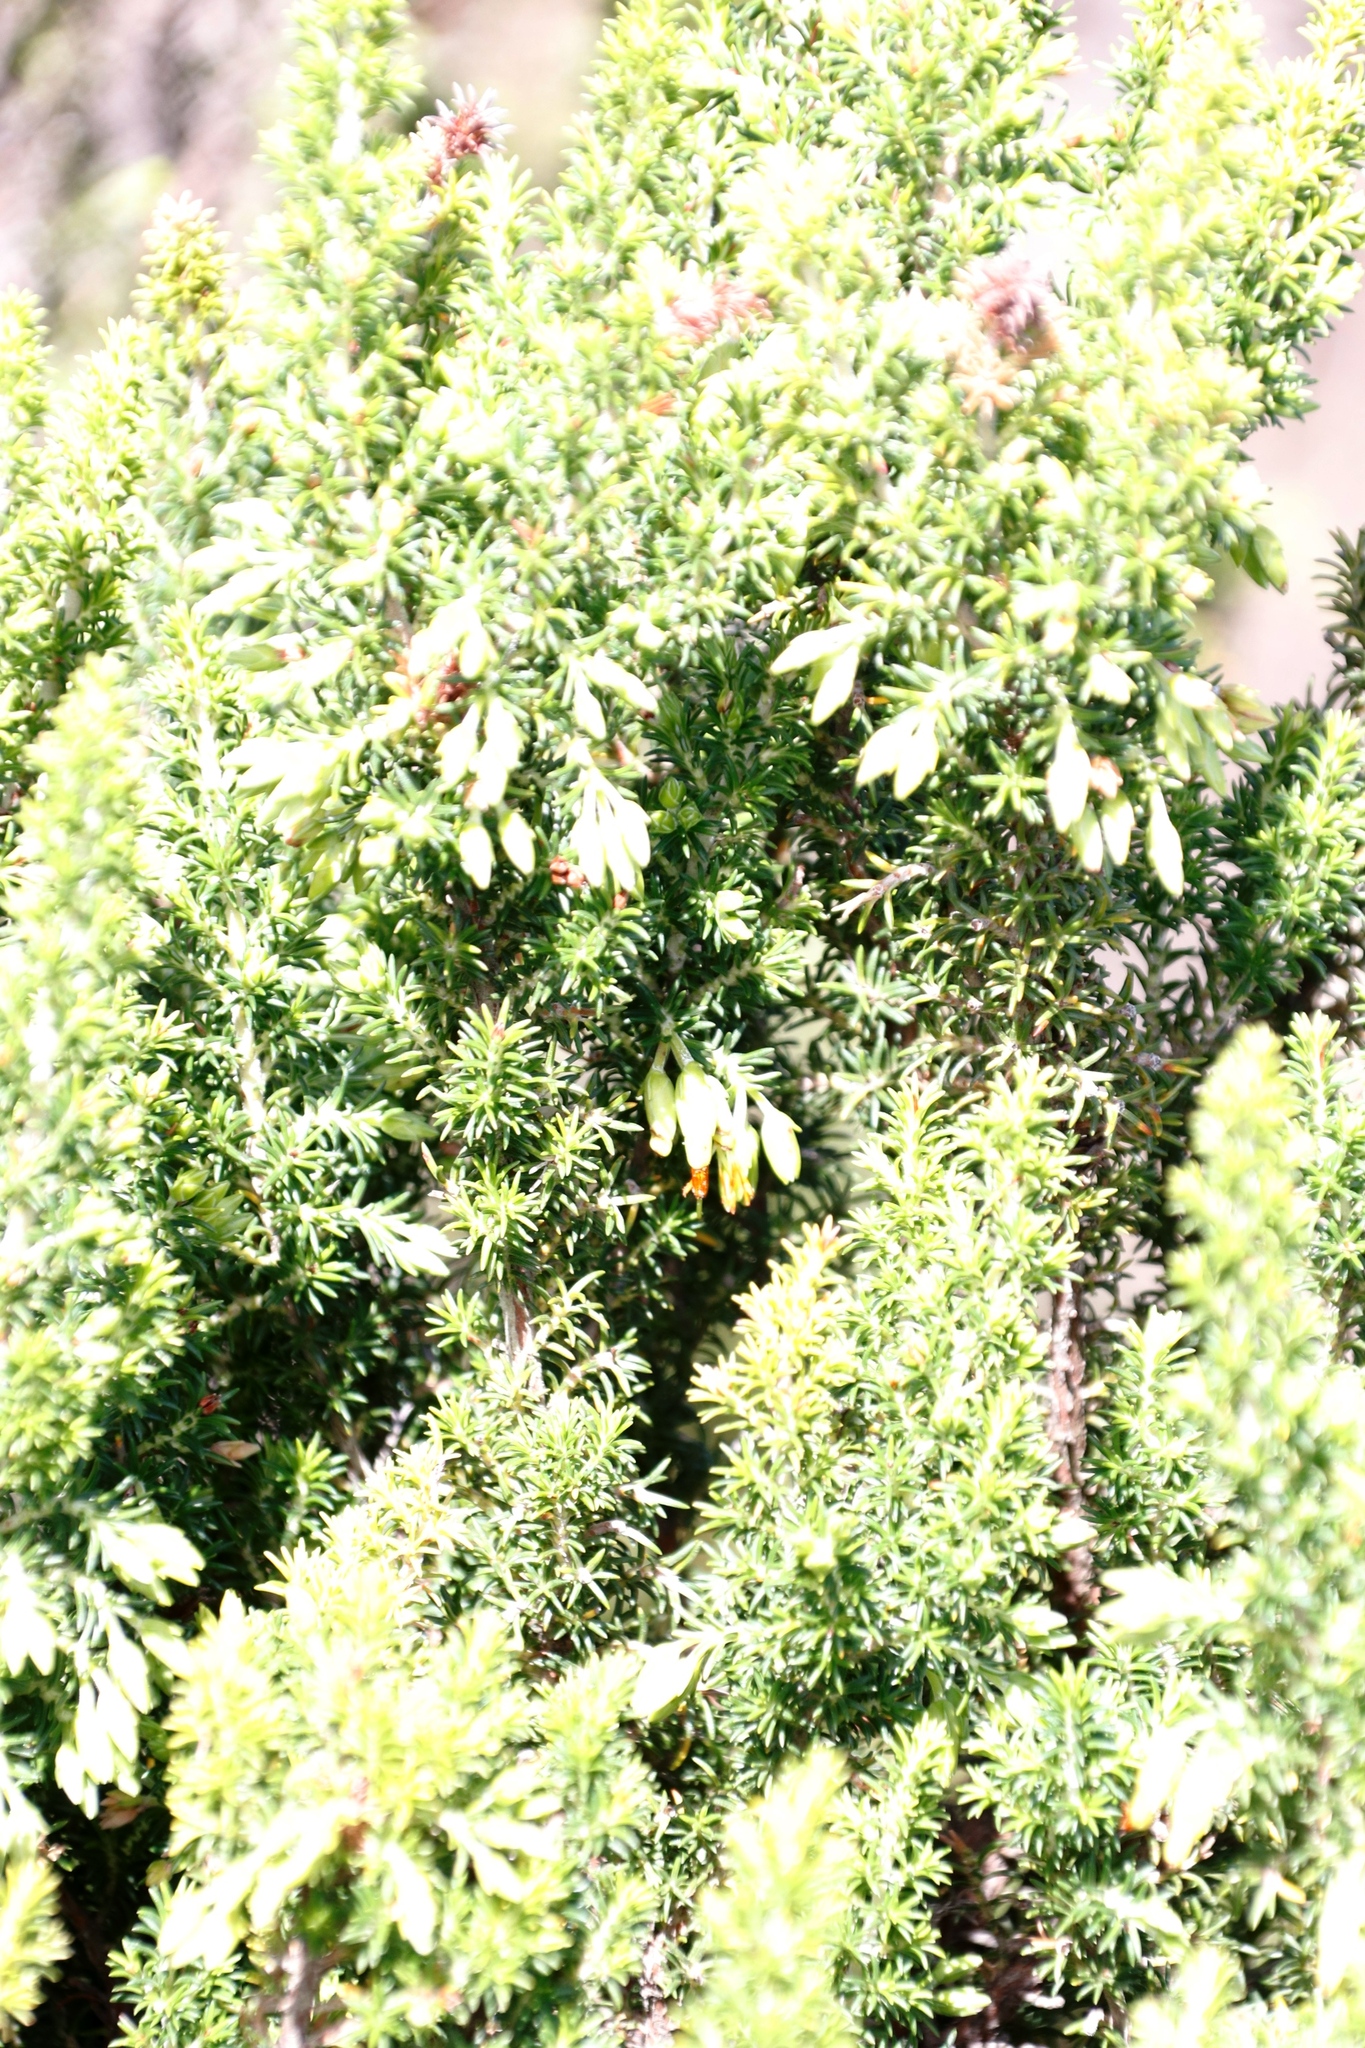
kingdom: Plantae
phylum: Tracheophyta
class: Magnoliopsida
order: Ericales
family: Ericaceae
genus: Erica
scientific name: Erica coccinea
